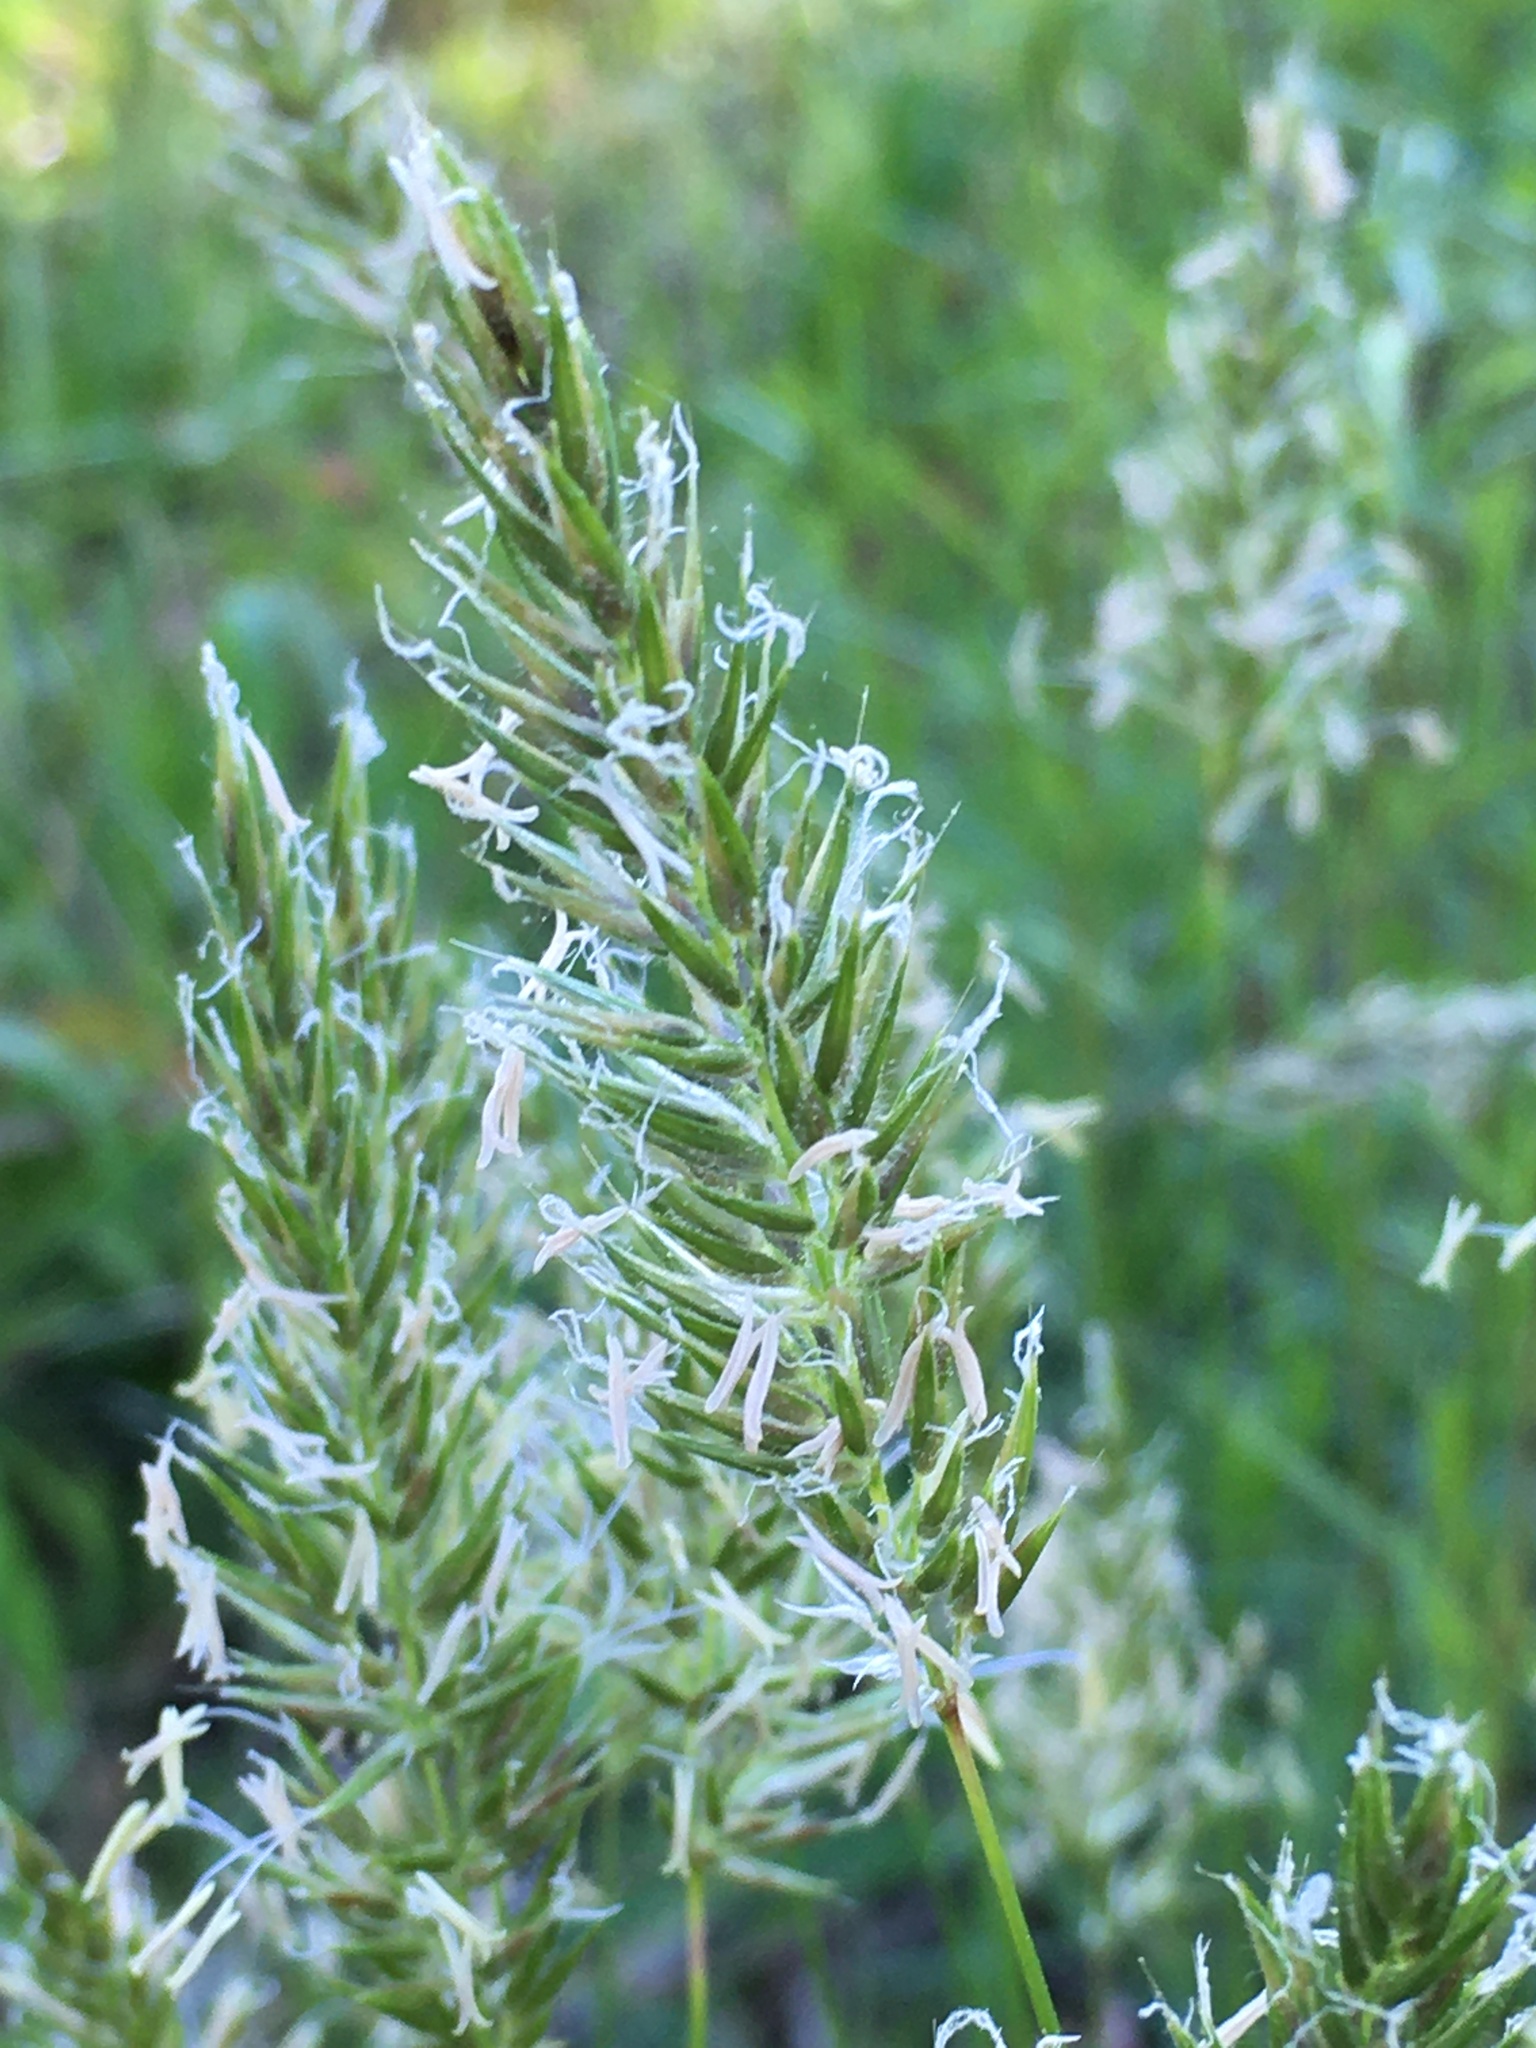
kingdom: Plantae
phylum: Tracheophyta
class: Liliopsida
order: Poales
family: Poaceae
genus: Anthoxanthum
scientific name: Anthoxanthum odoratum
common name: Sweet vernalgrass
